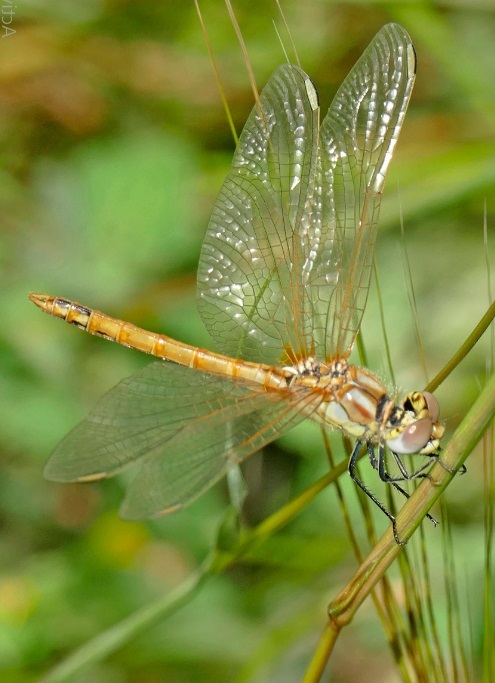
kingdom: Animalia
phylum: Arthropoda
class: Insecta
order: Odonata
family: Libellulidae
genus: Sympetrum
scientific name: Sympetrum fonscolombii
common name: Red-veined darter
